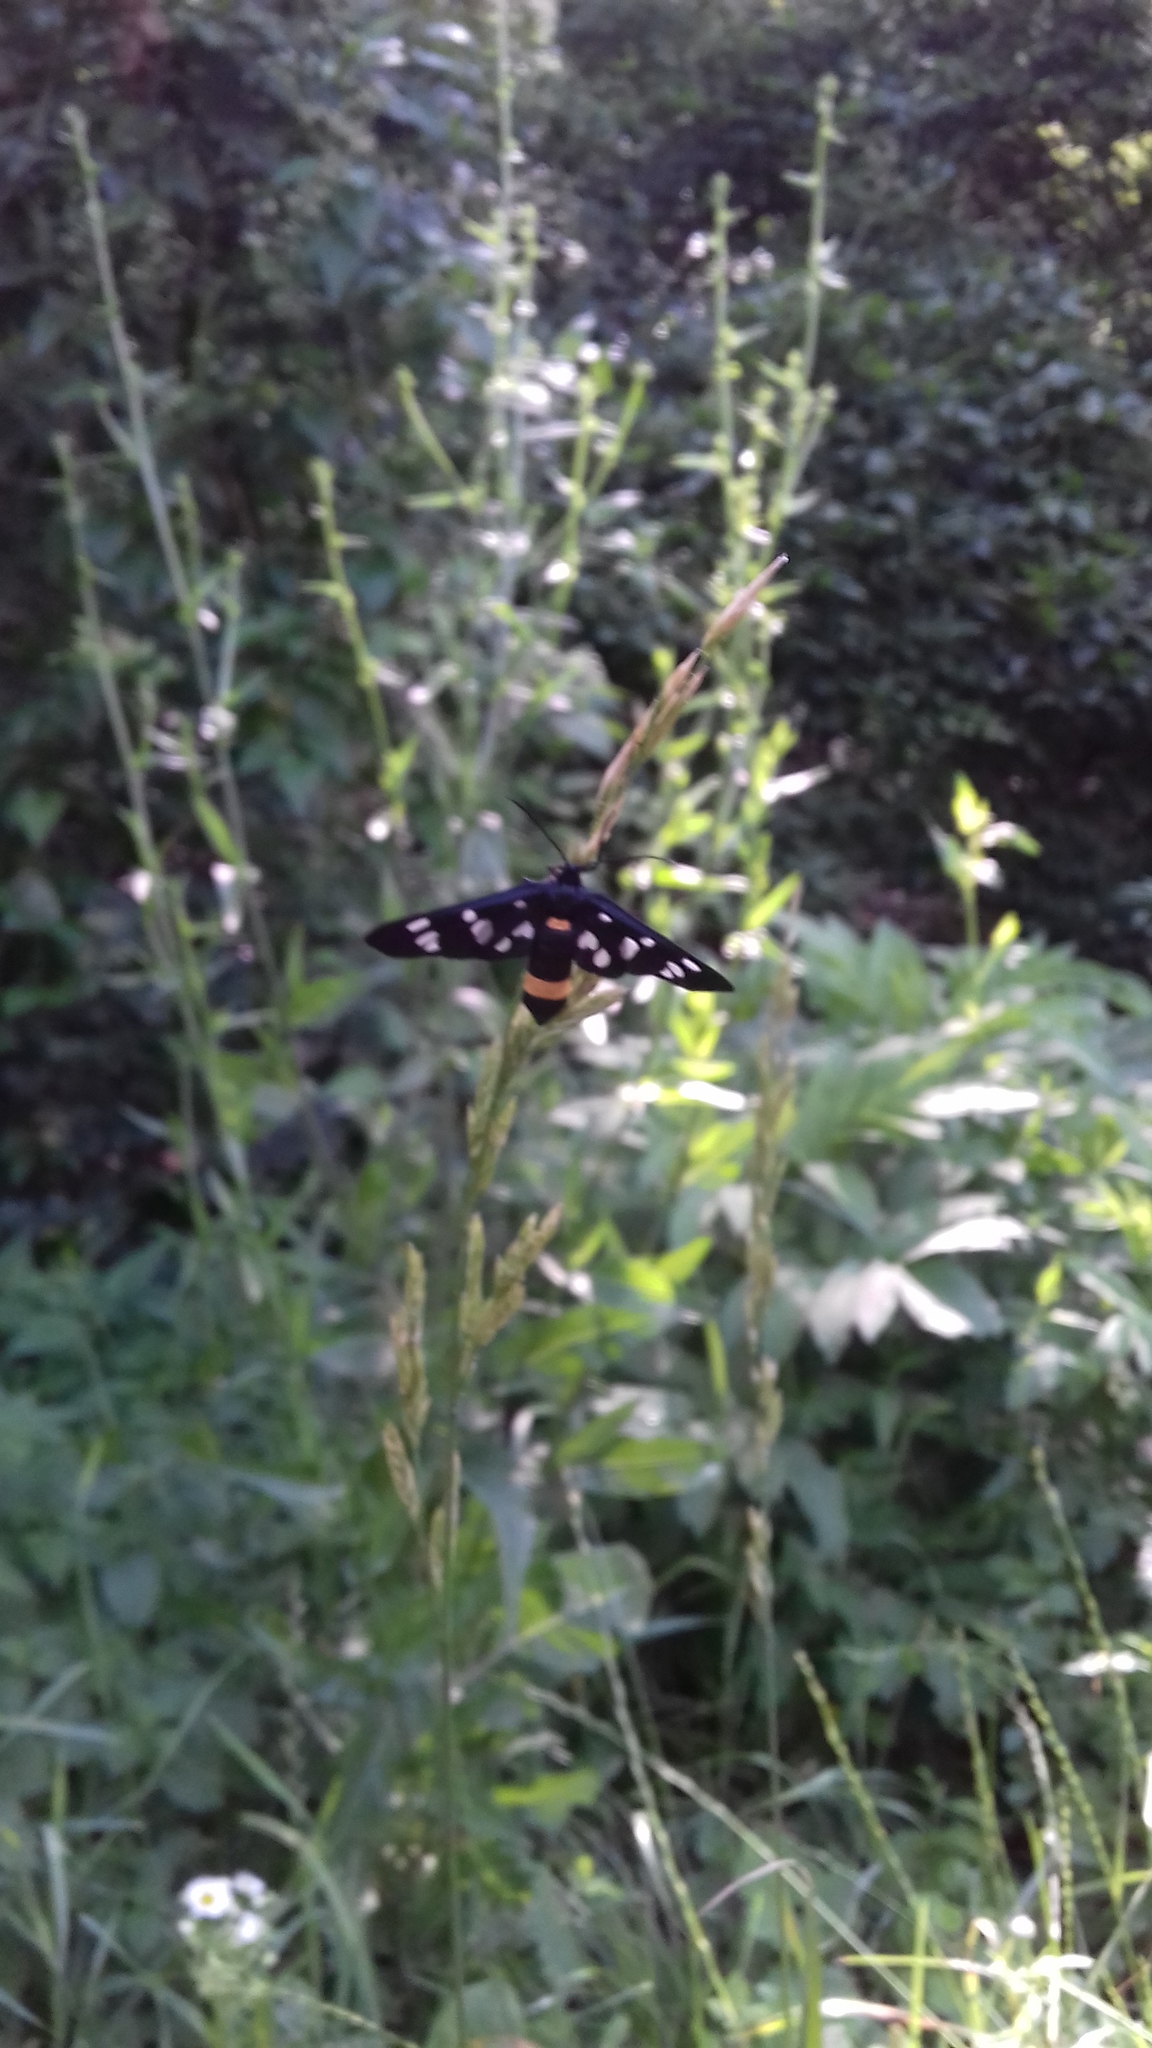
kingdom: Animalia
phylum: Arthropoda
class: Insecta
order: Lepidoptera
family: Erebidae
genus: Amata
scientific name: Amata phegea
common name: Nine-spotted
